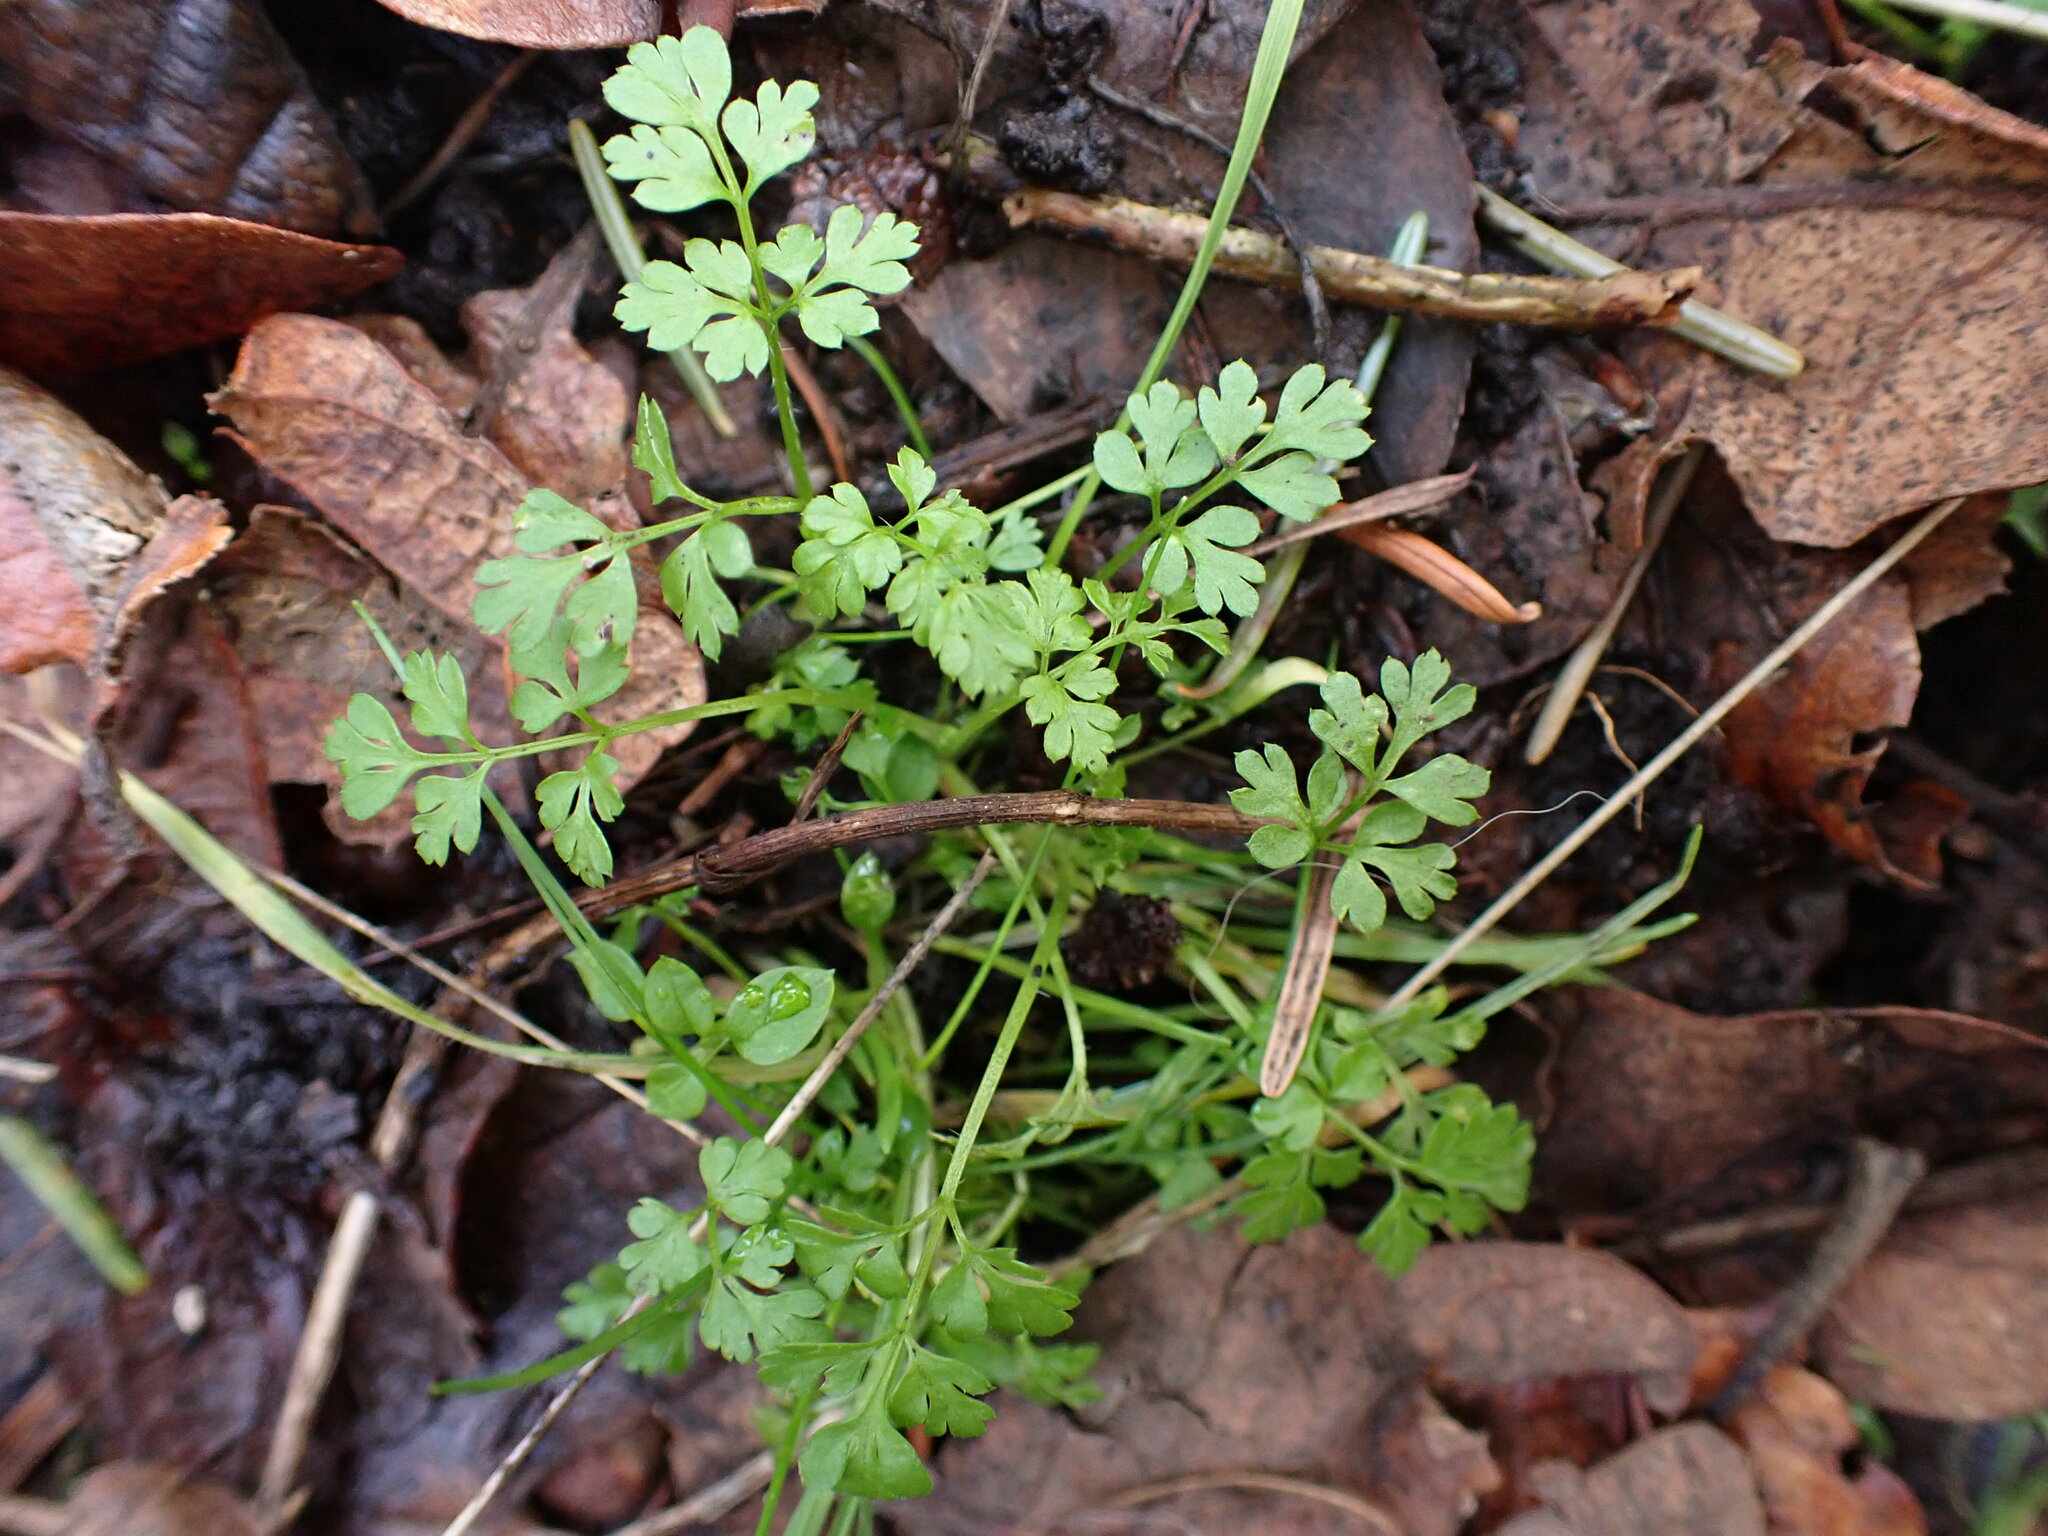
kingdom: Plantae
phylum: Tracheophyta
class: Magnoliopsida
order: Apiales
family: Apiaceae
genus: Anthriscus
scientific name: Anthriscus caucalis
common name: Bur chervil
